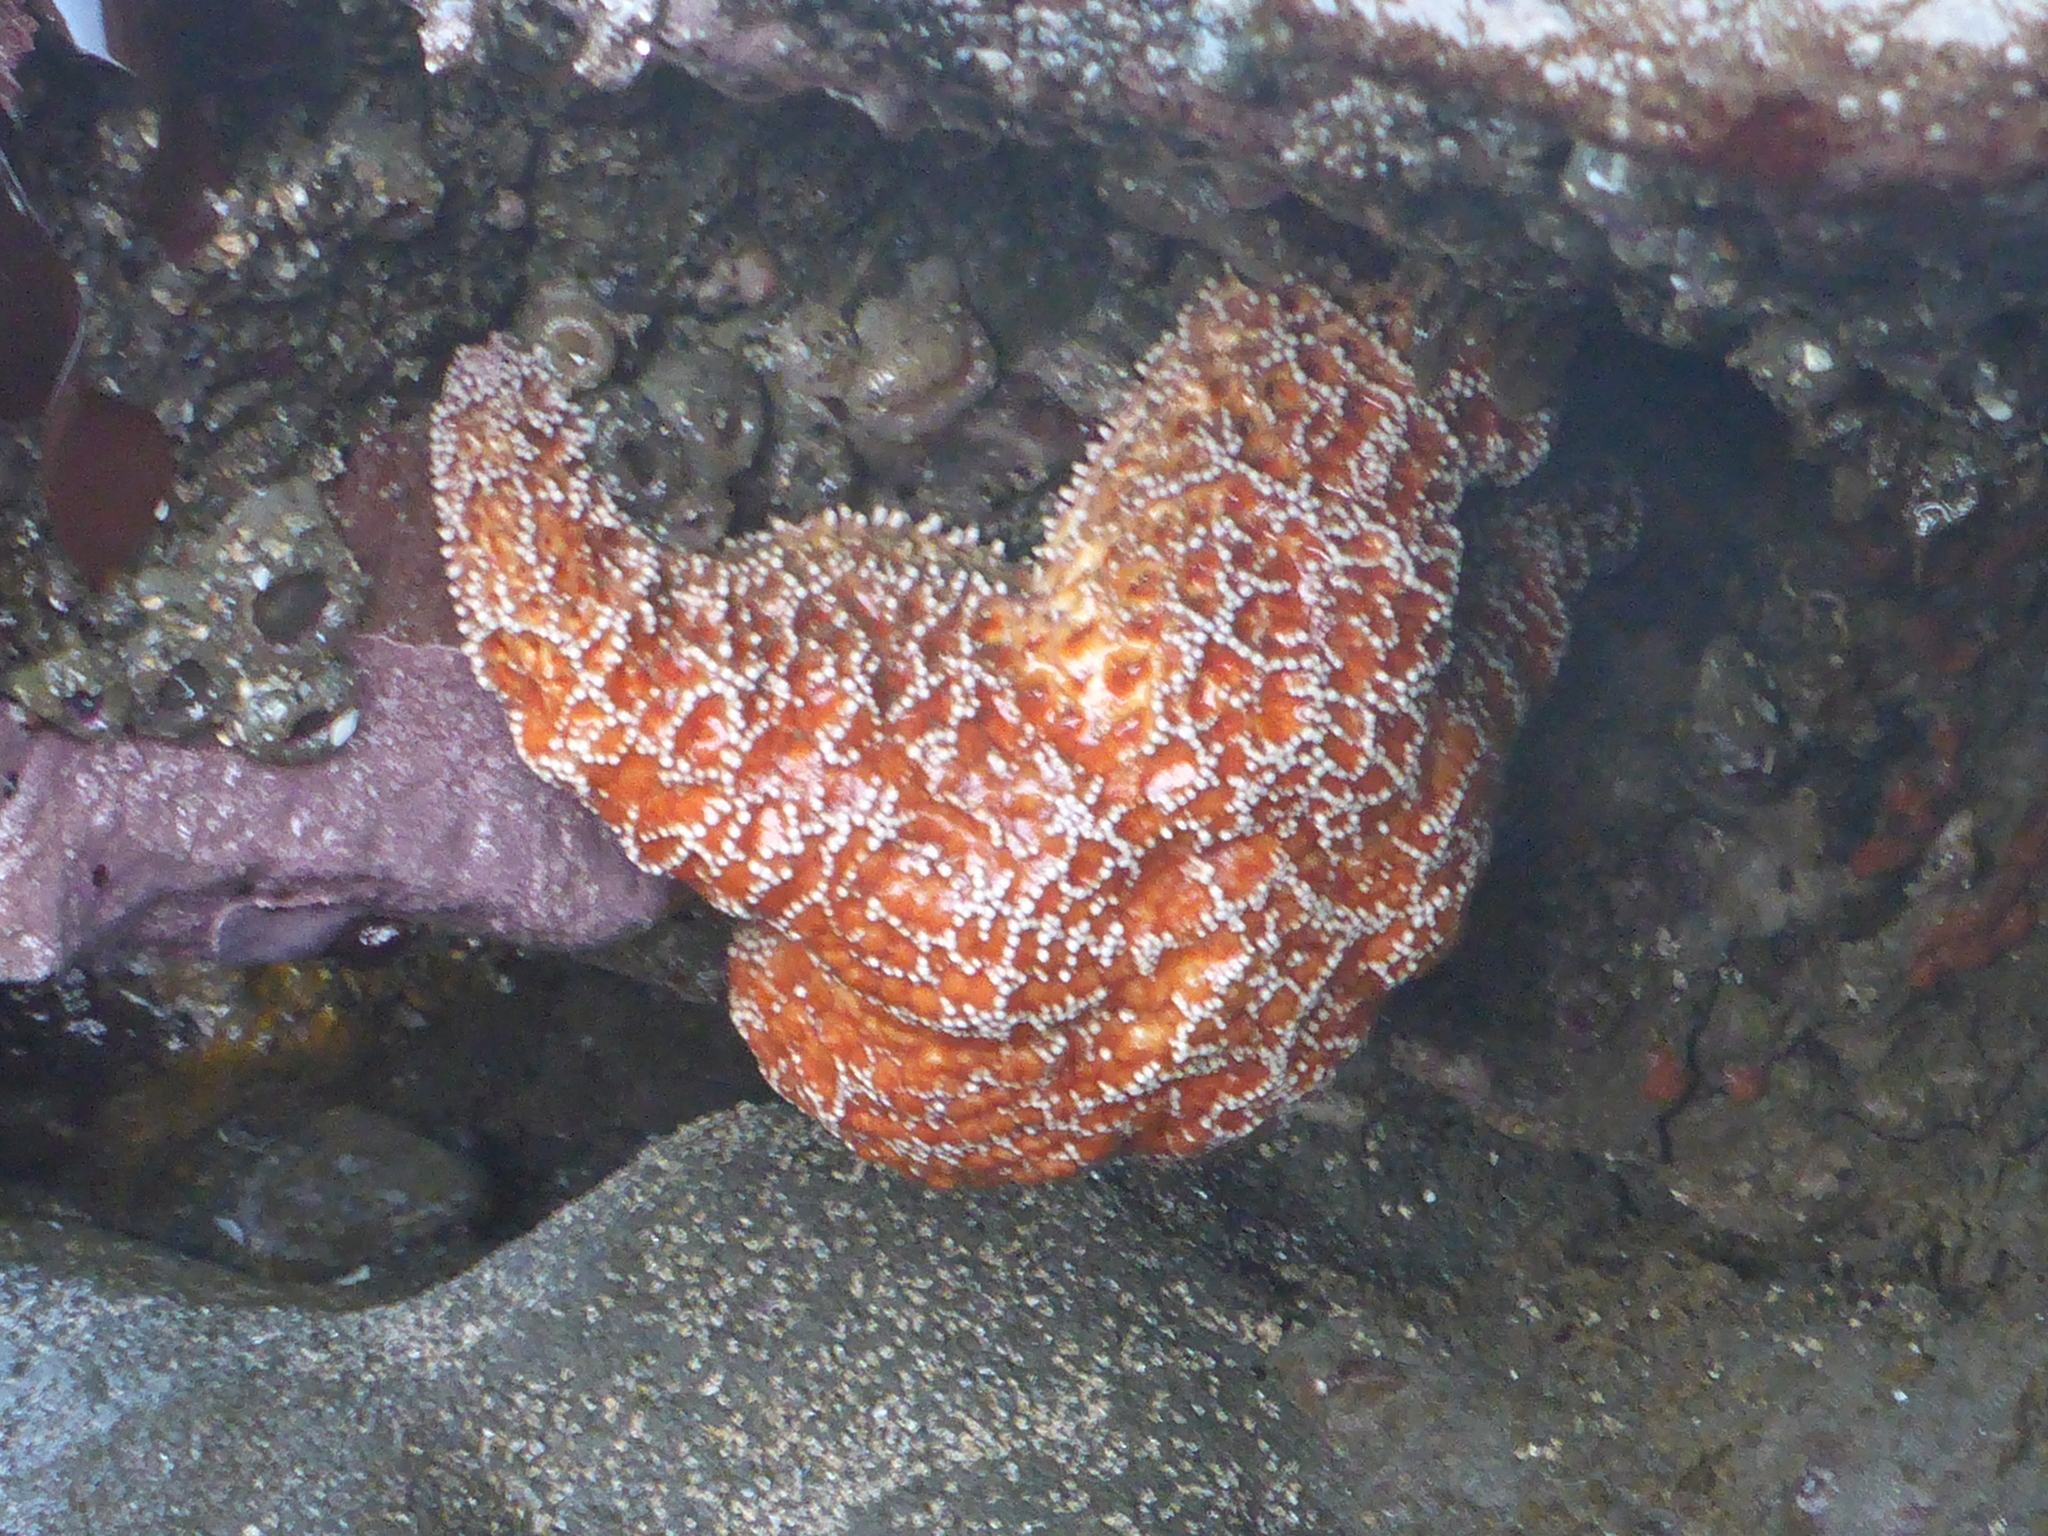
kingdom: Animalia
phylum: Echinodermata
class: Asteroidea
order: Forcipulatida
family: Asteriidae
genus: Pisaster
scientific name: Pisaster ochraceus
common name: Ochre stars
